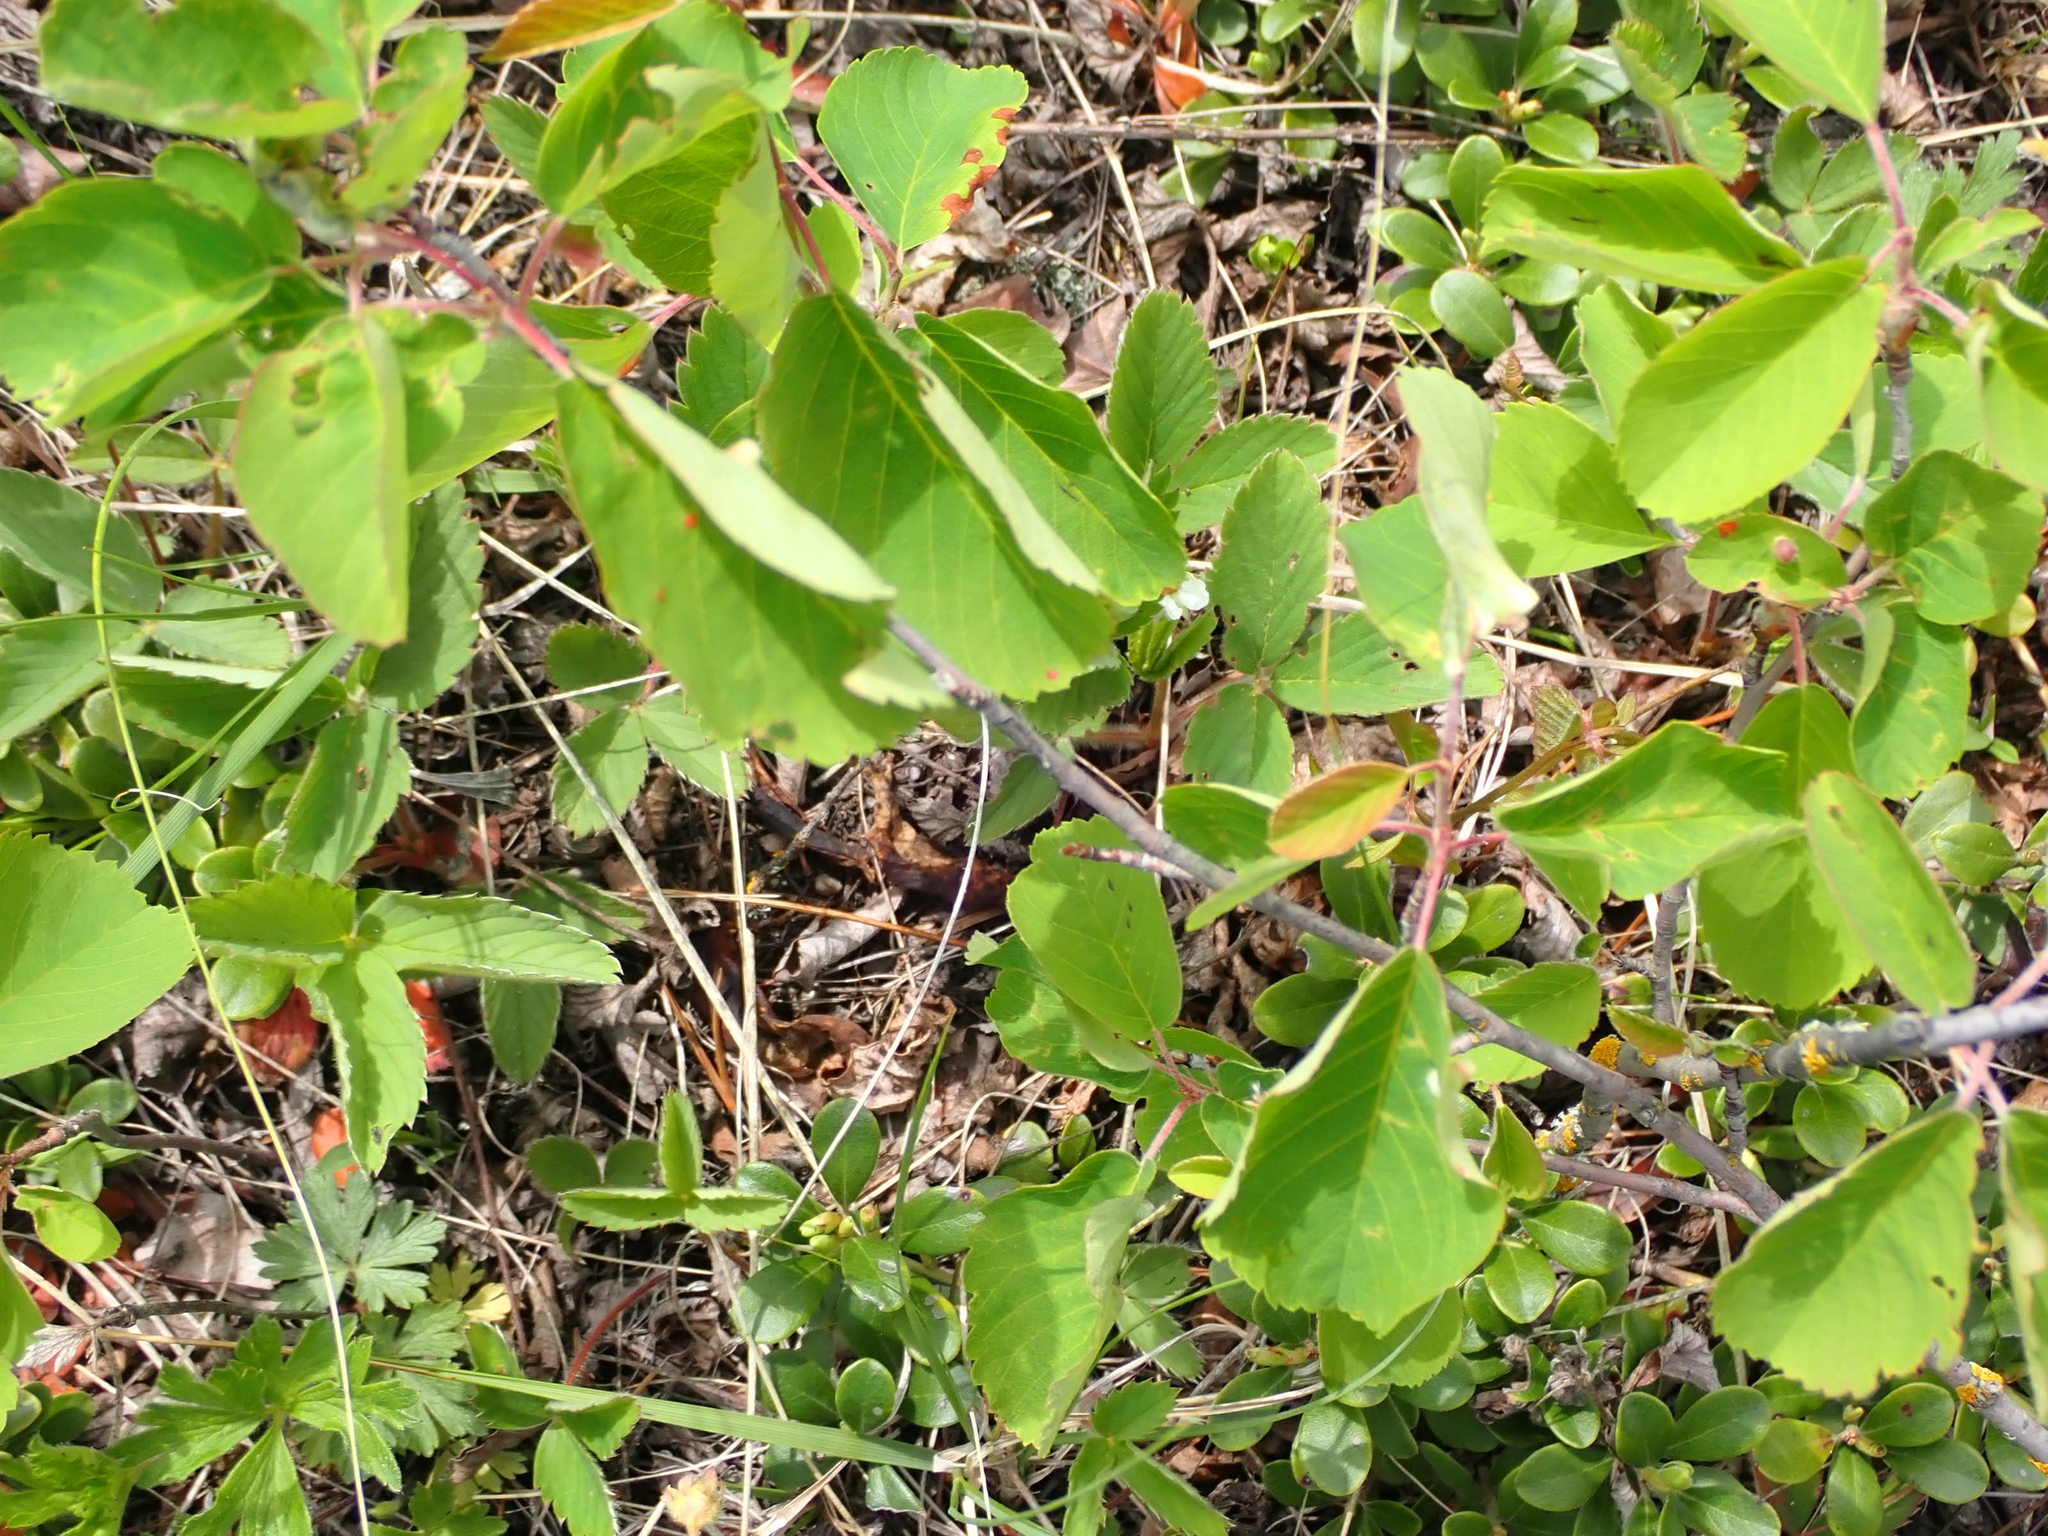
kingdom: Plantae
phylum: Tracheophyta
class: Magnoliopsida
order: Rosales
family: Rosaceae
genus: Amelanchier
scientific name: Amelanchier alnifolia
